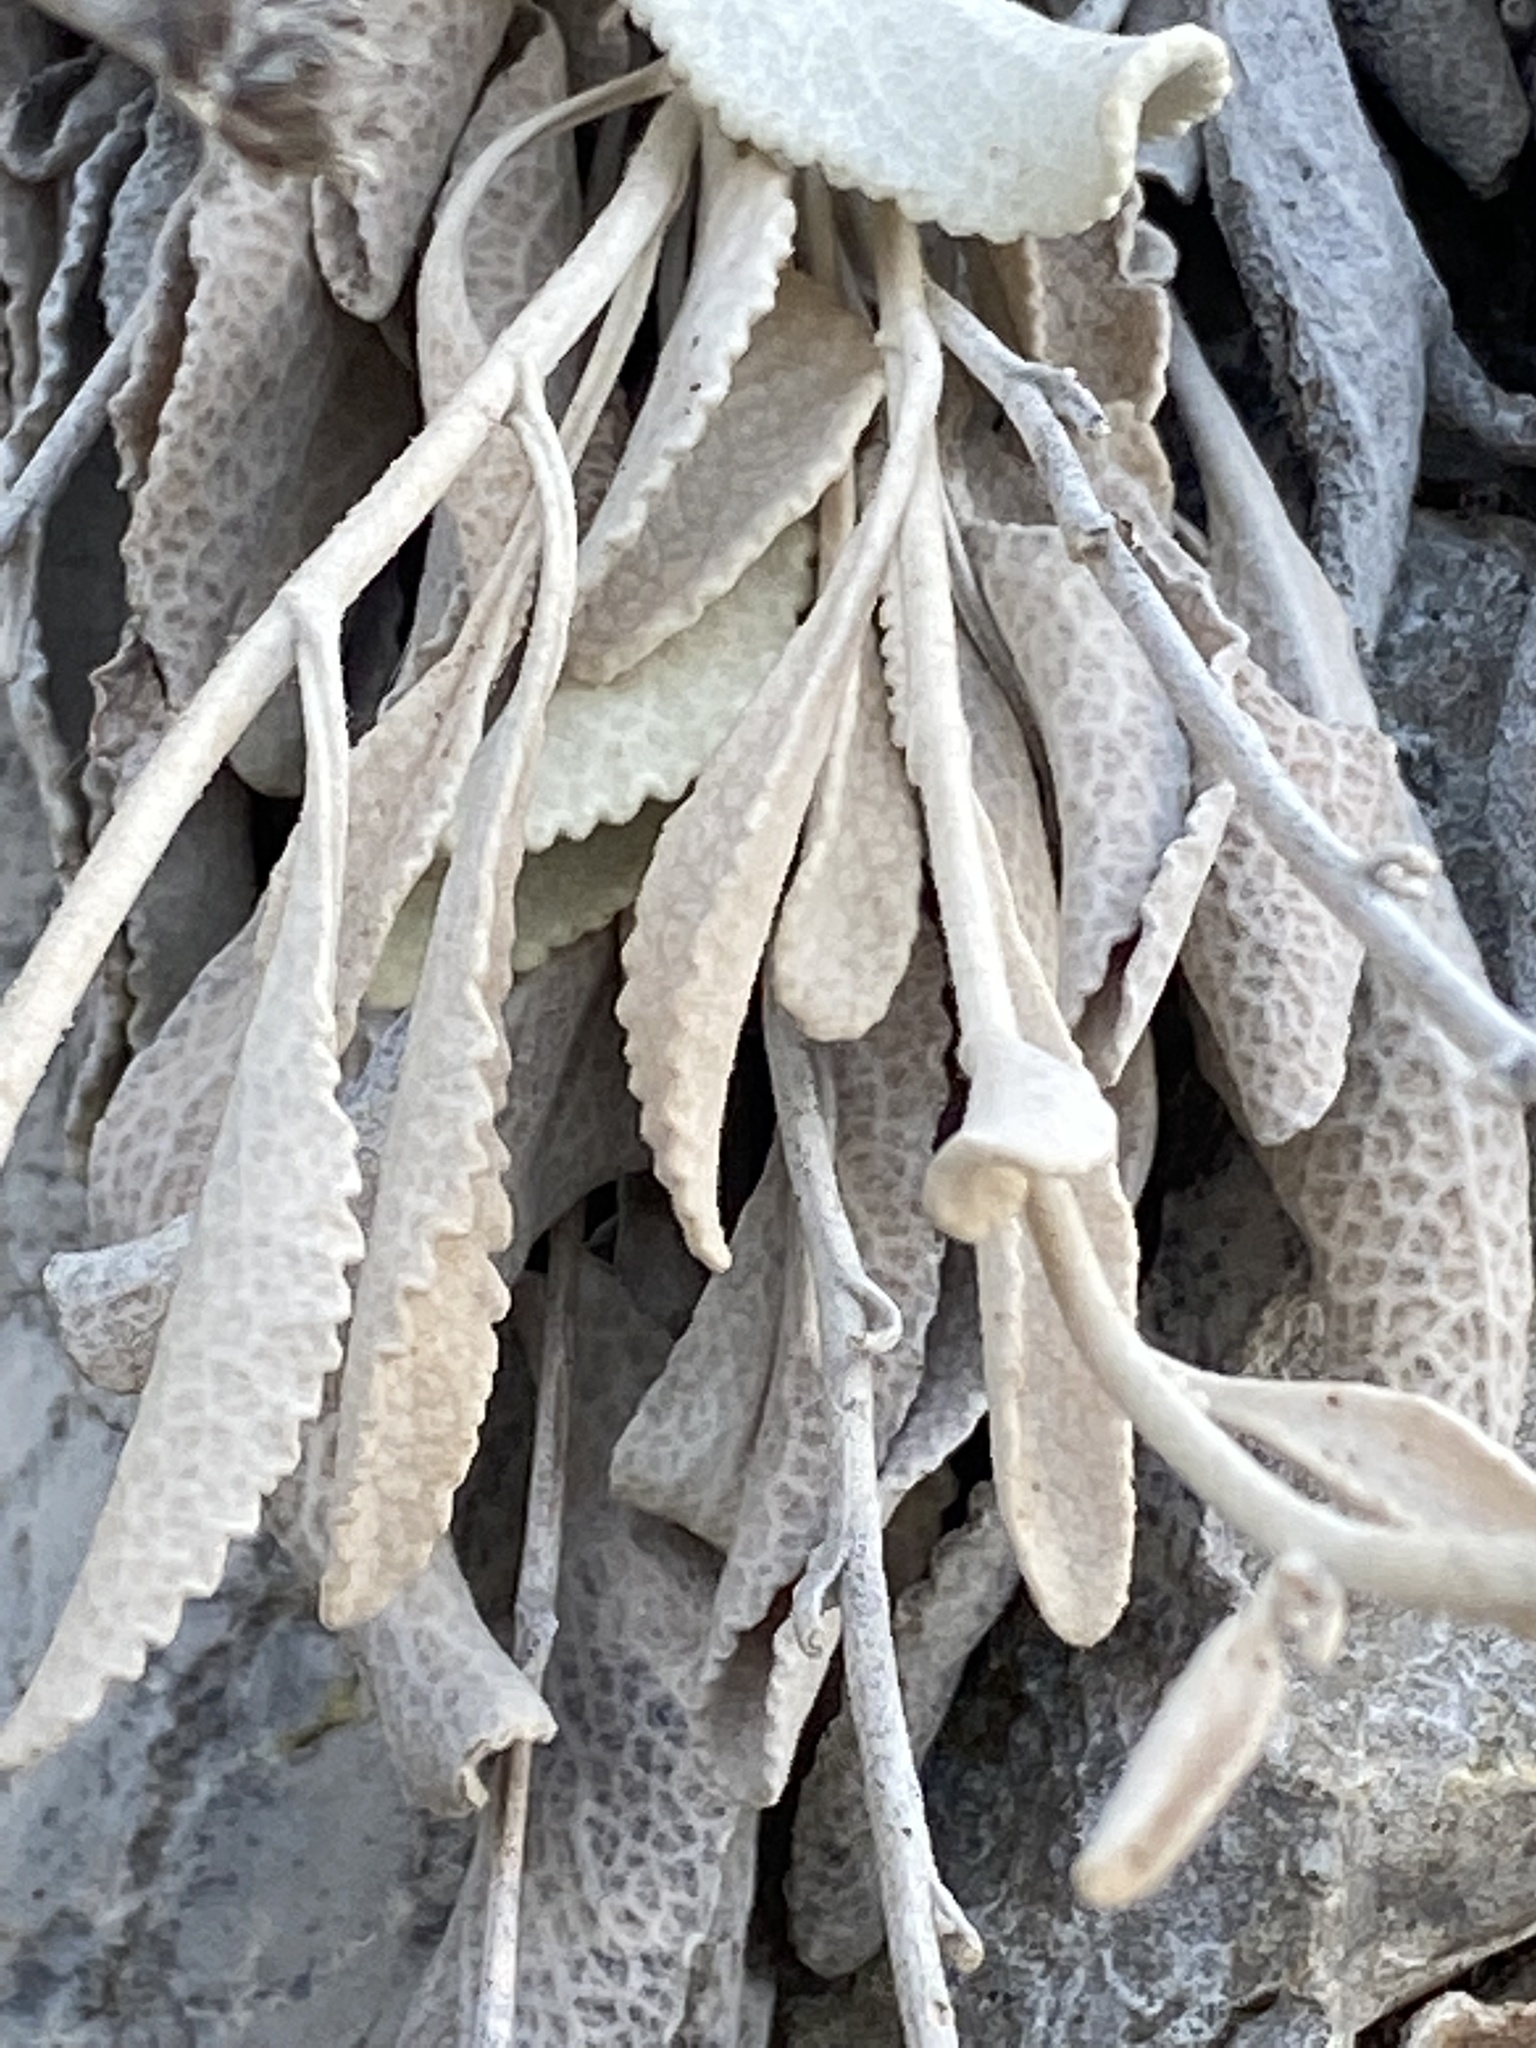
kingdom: Plantae
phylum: Tracheophyta
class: Magnoliopsida
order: Asterales
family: Asteraceae
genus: Pentanema
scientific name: Pentanema verbascifolium
